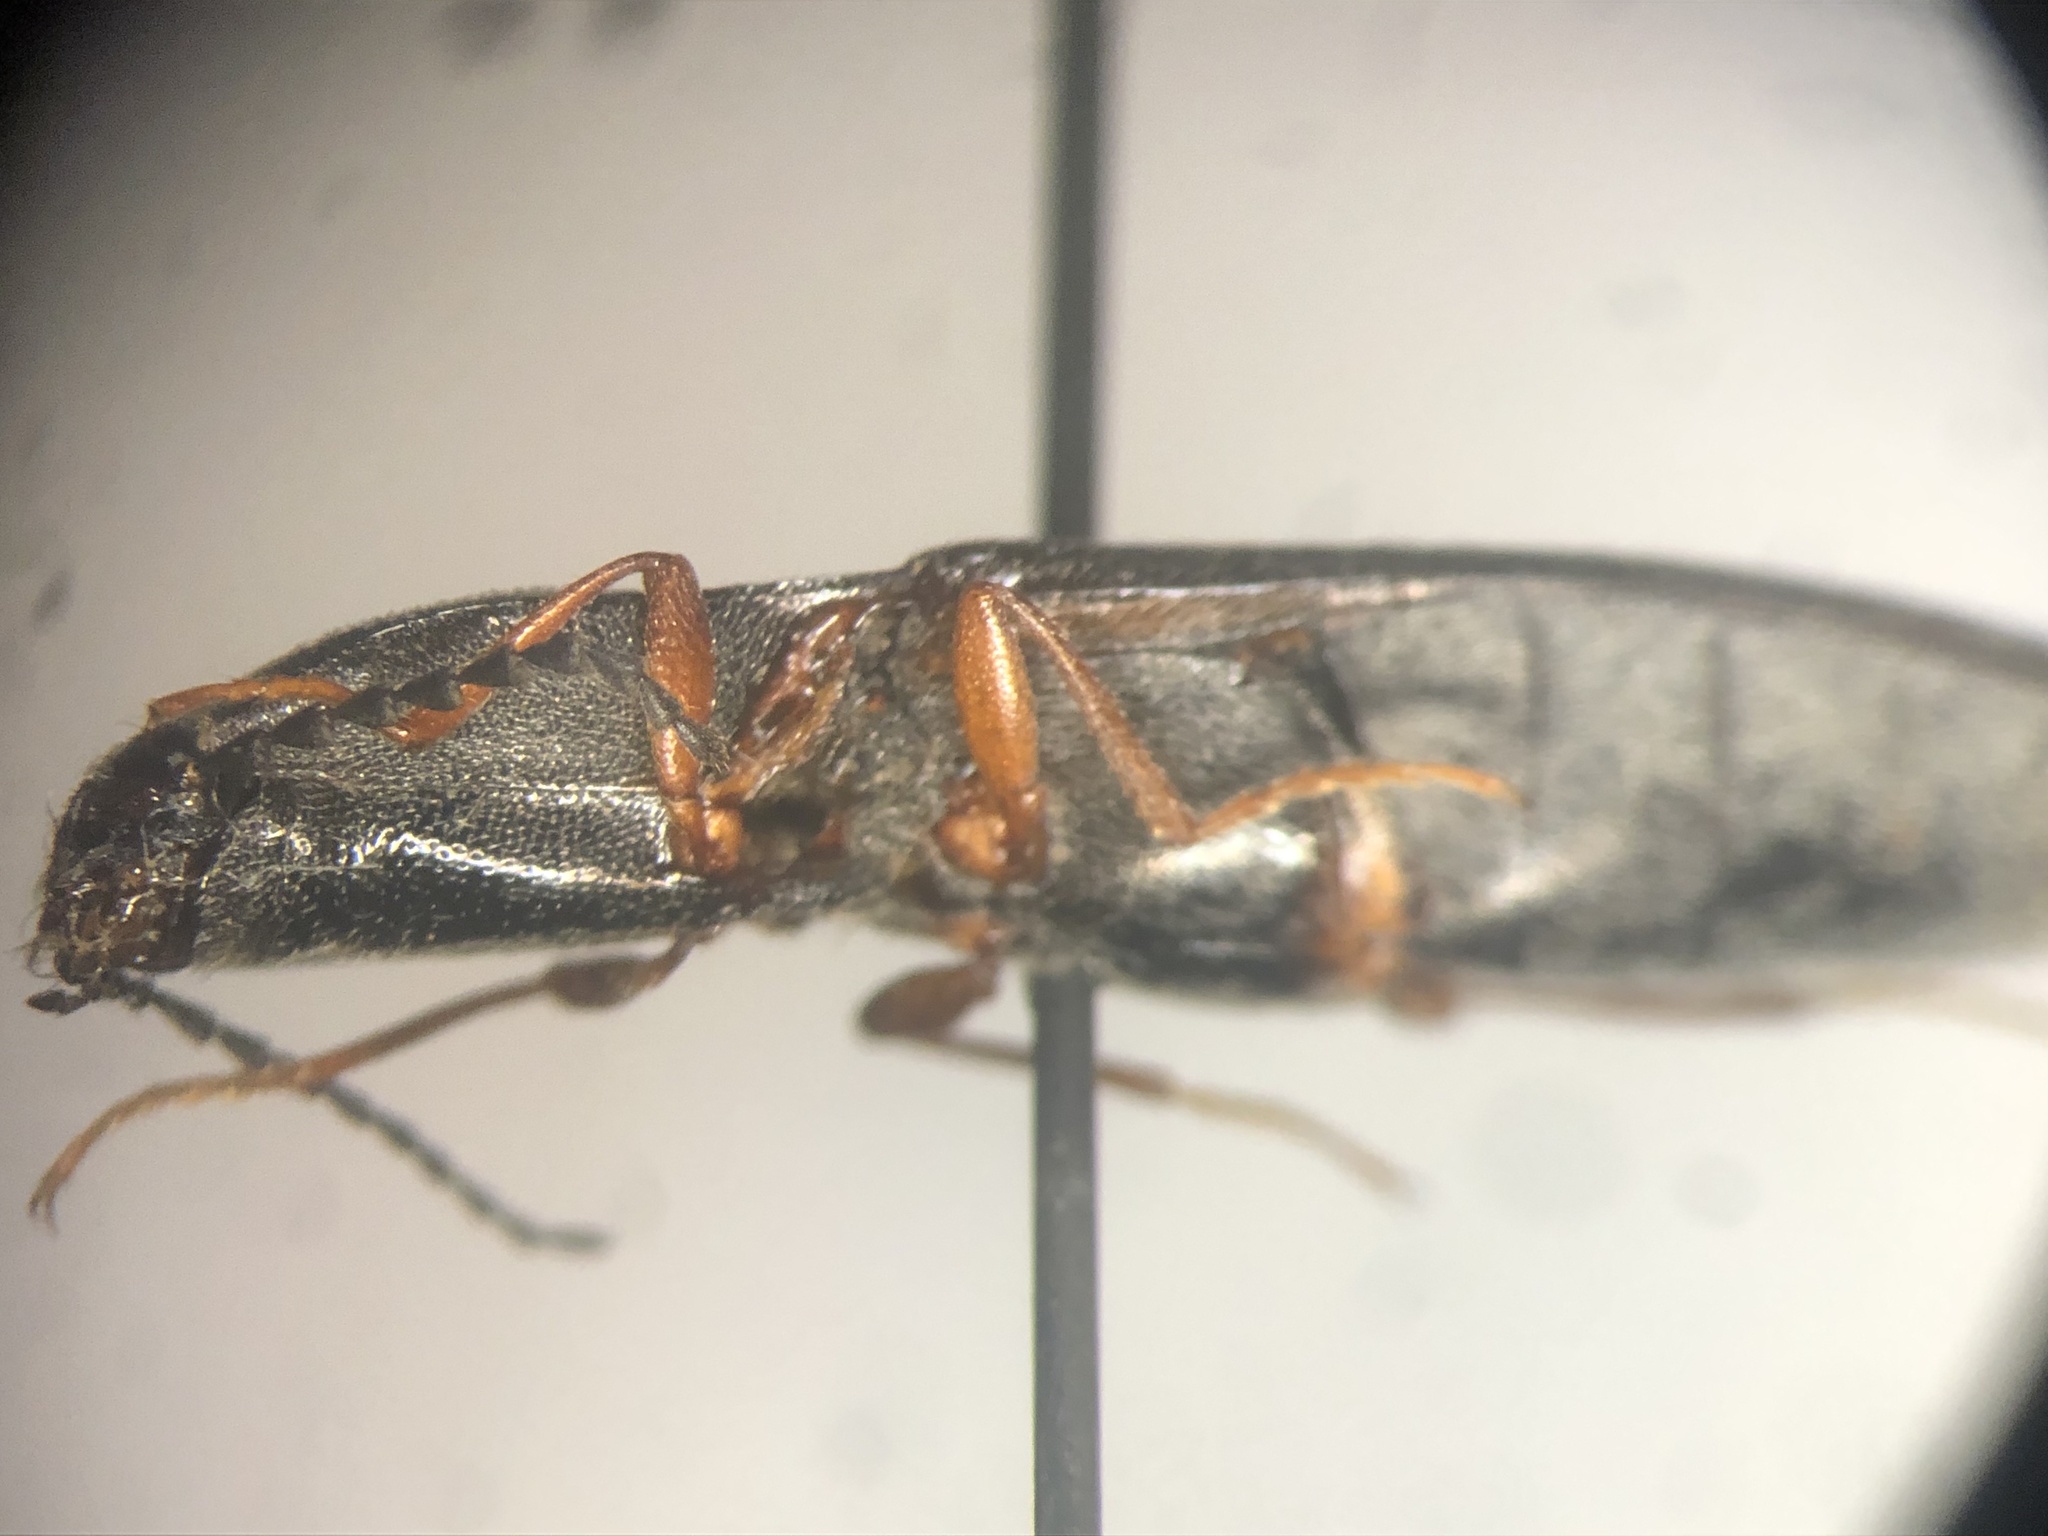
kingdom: Animalia
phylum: Arthropoda
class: Insecta
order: Coleoptera
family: Elateridae
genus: Paractenicera
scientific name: Paractenicera fulvipes
